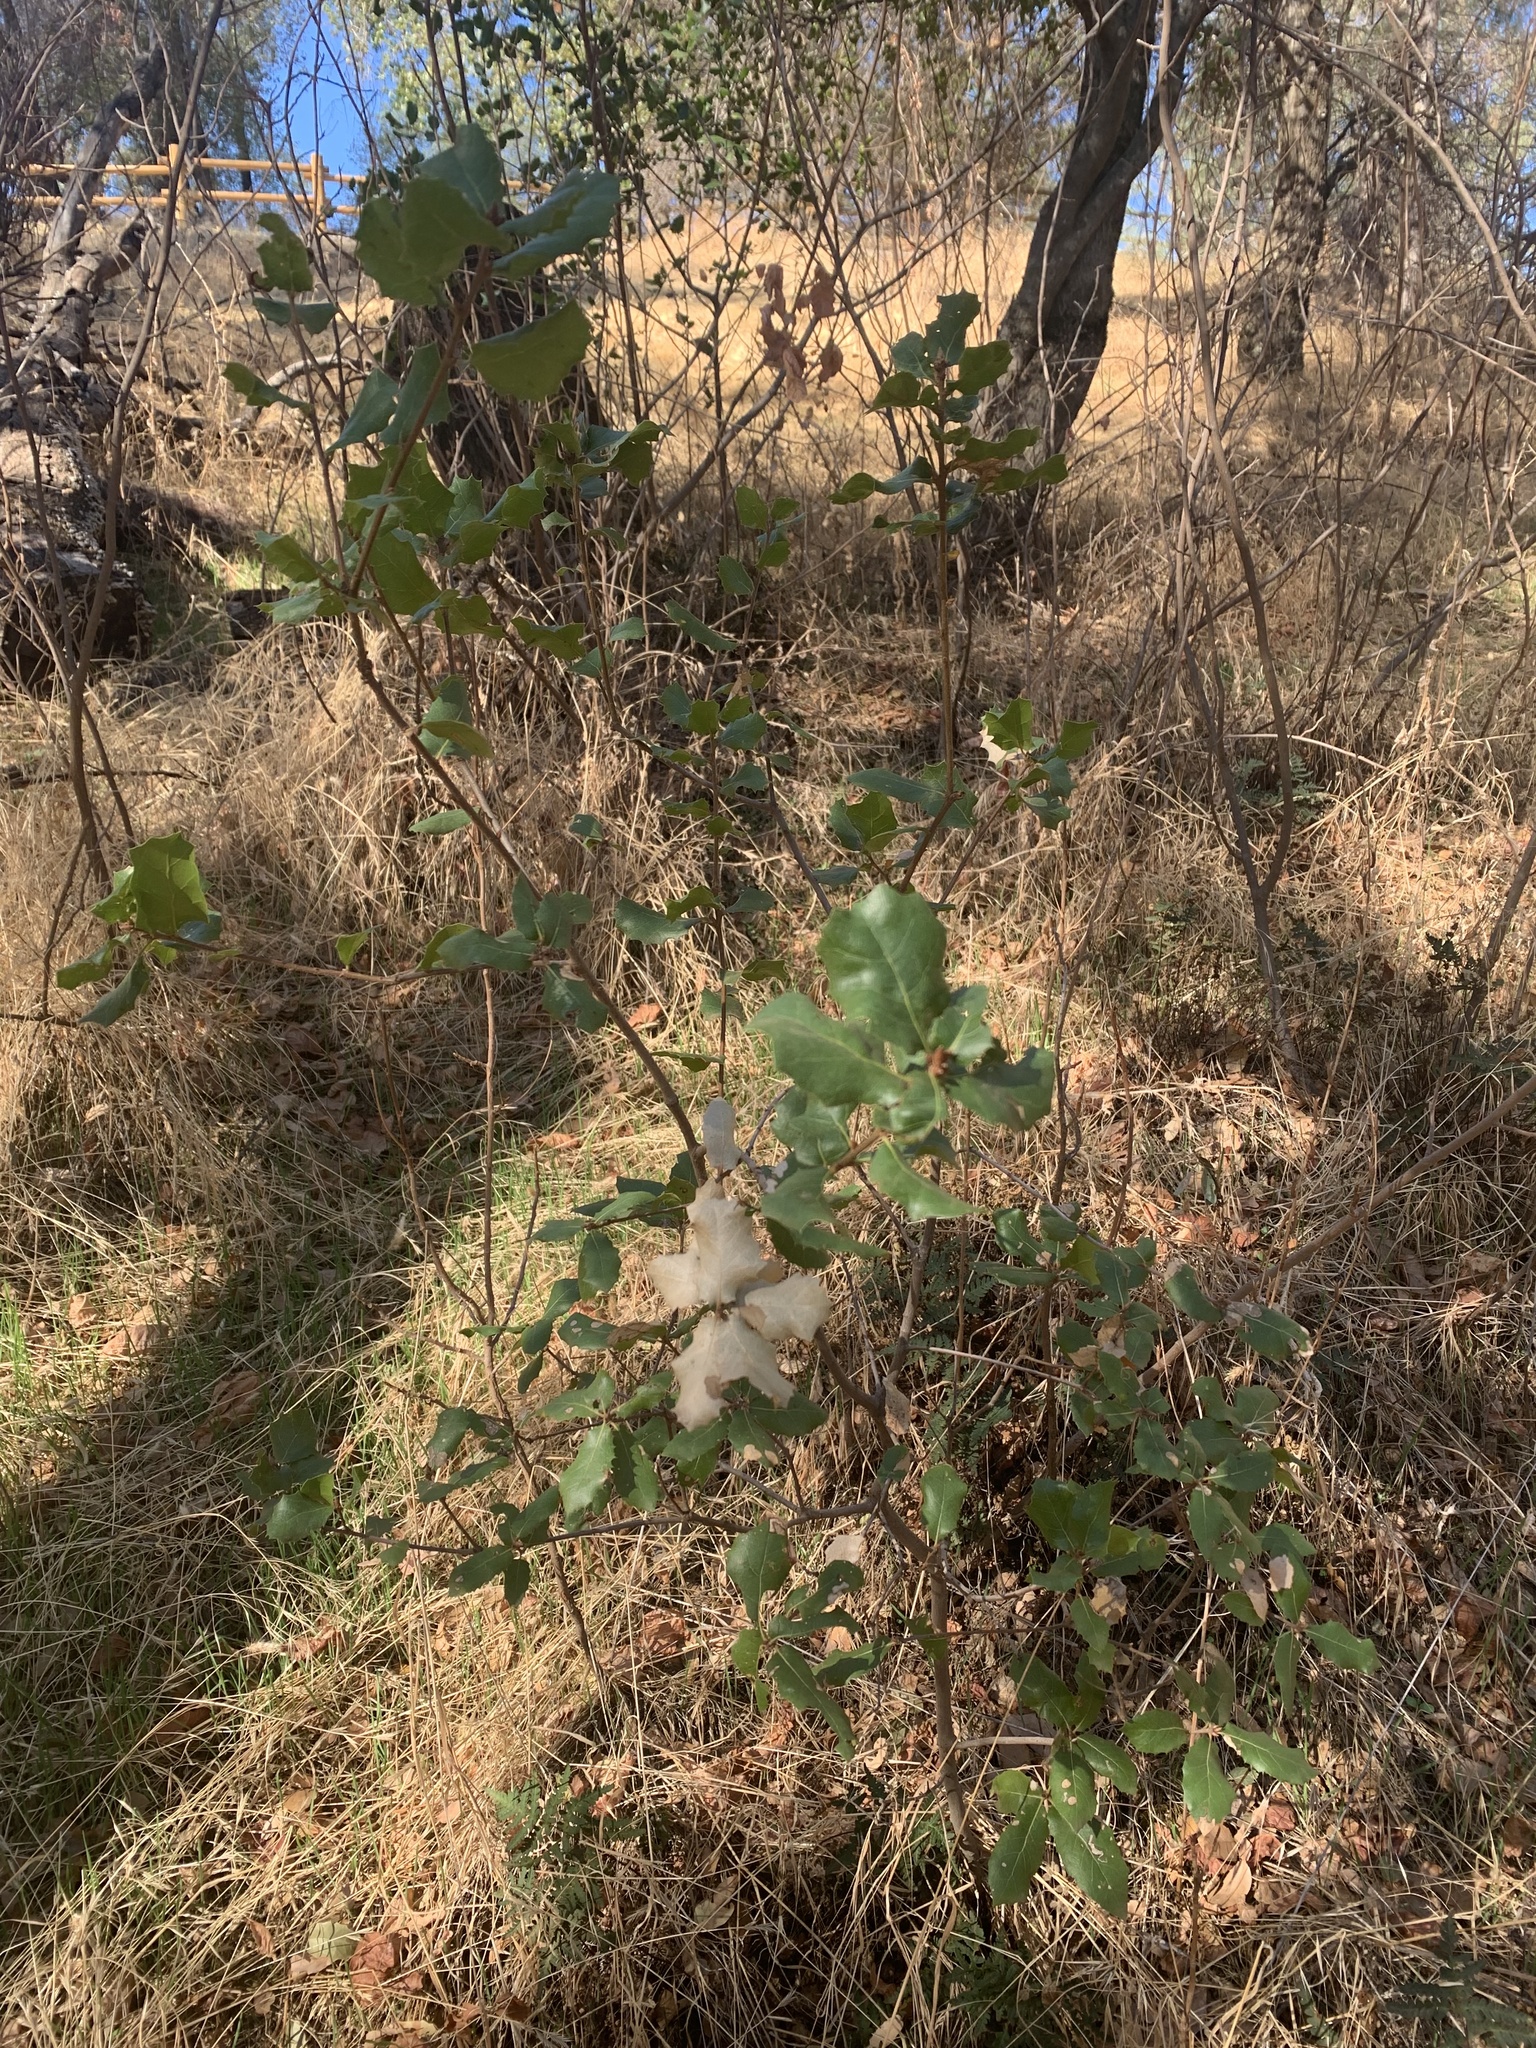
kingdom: Plantae
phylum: Tracheophyta
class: Magnoliopsida
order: Fagales
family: Fagaceae
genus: Quercus
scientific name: Quercus wislizeni
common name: Interior live oak
